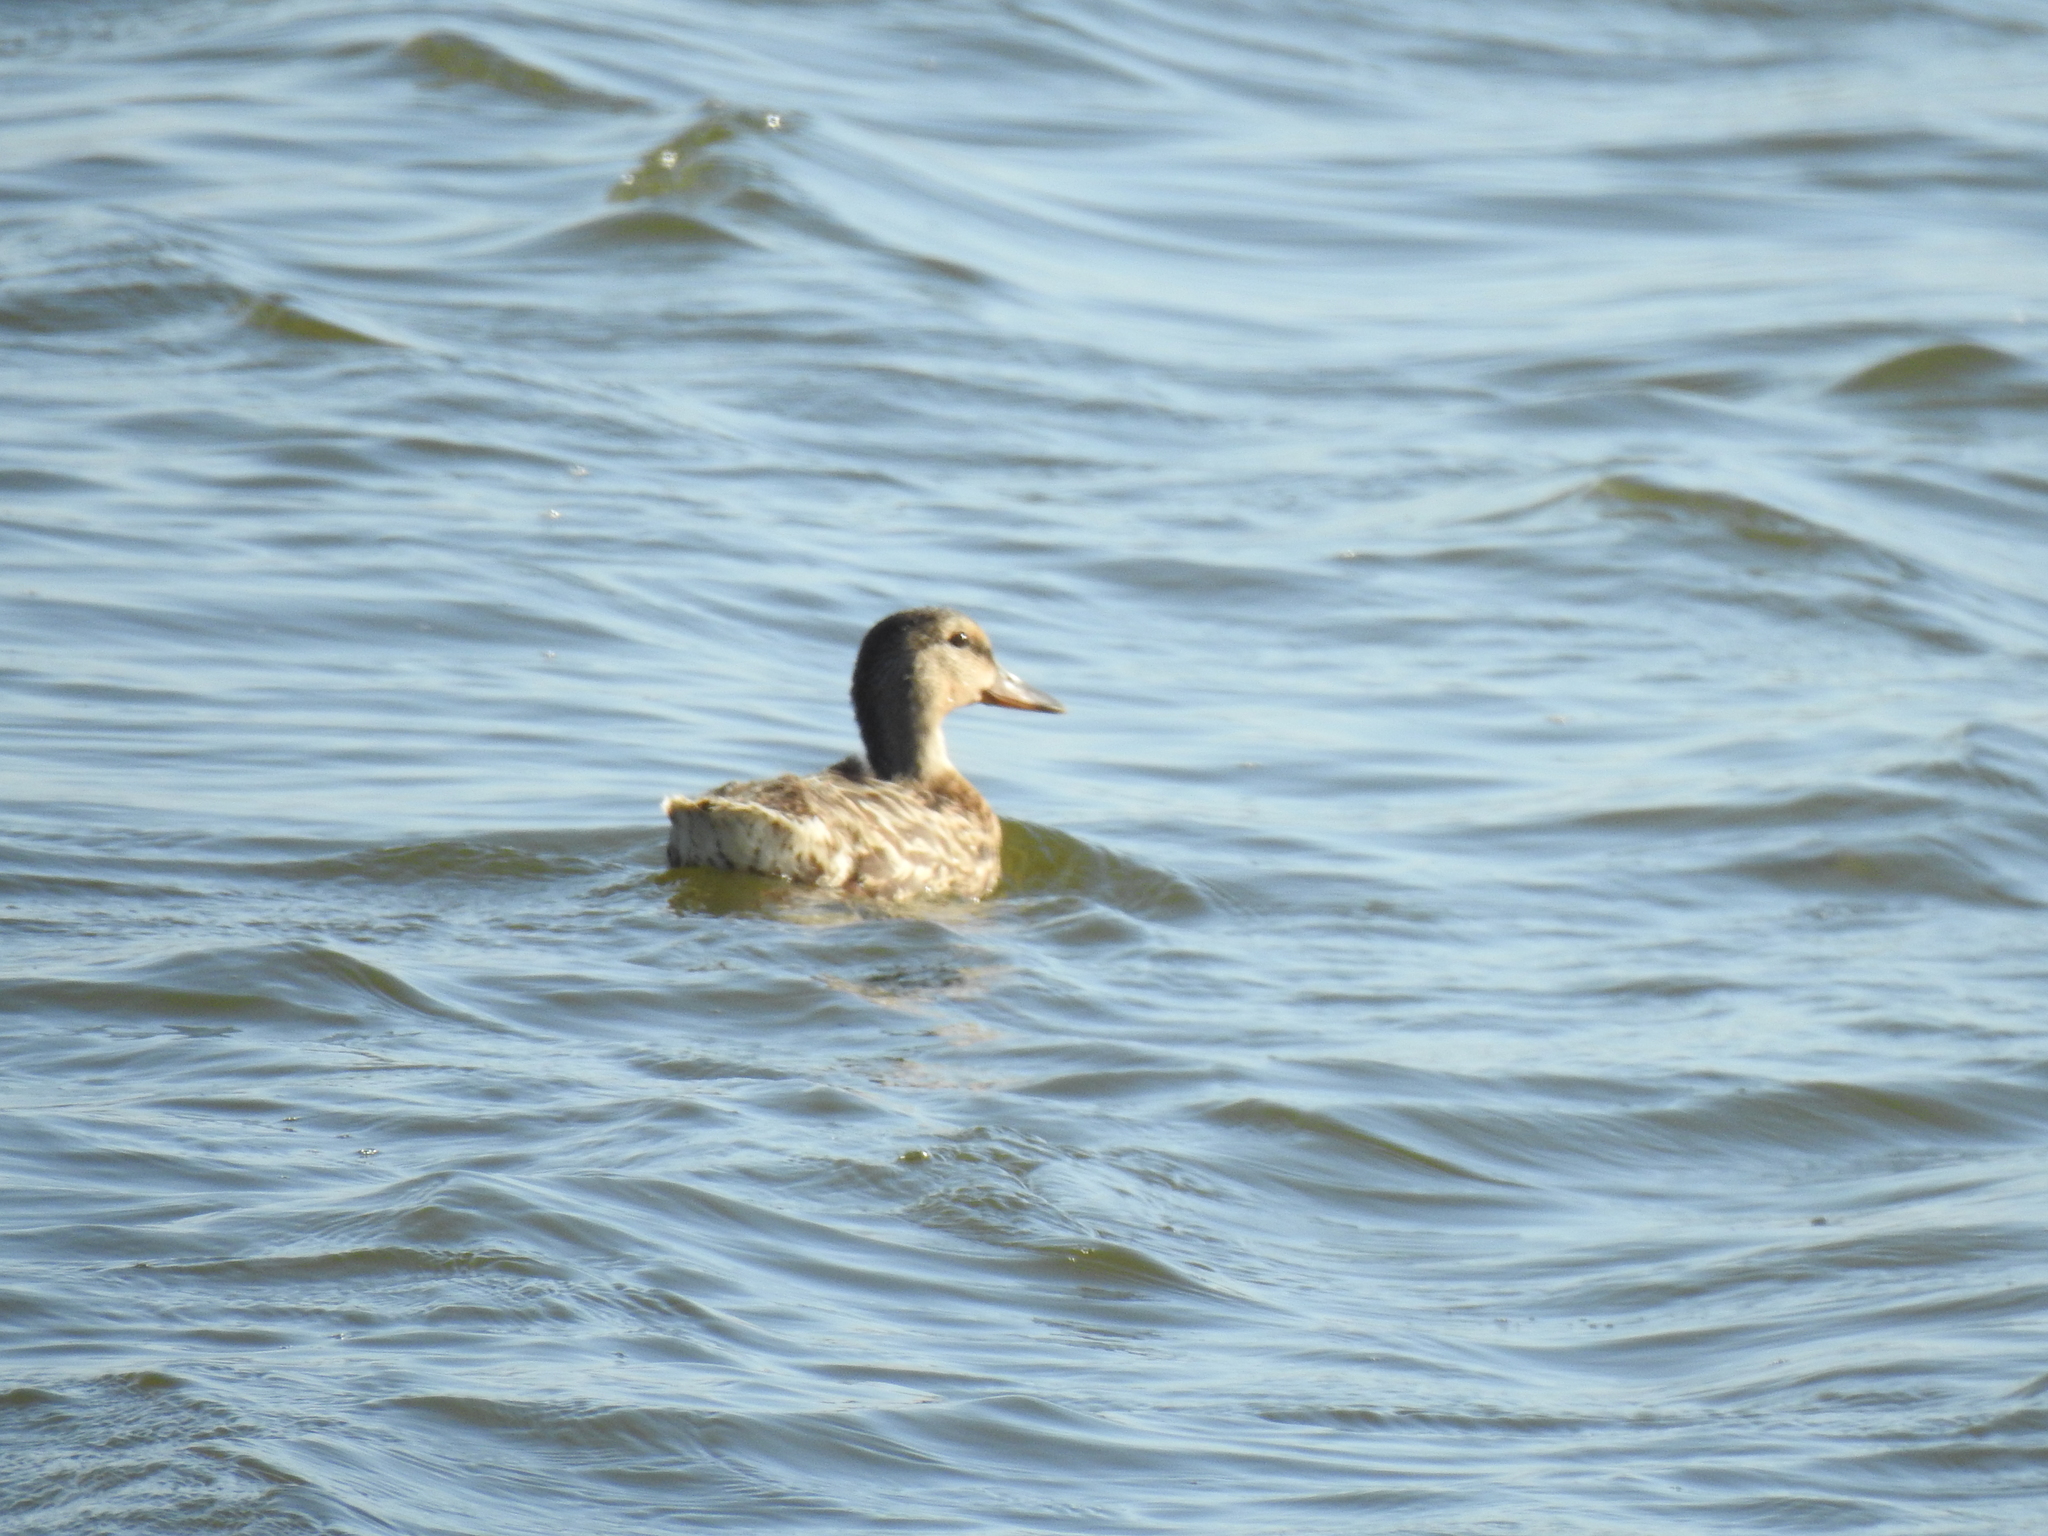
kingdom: Animalia
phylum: Chordata
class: Aves
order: Anseriformes
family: Anatidae
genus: Anas
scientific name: Anas platyrhynchos
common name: Mallard
